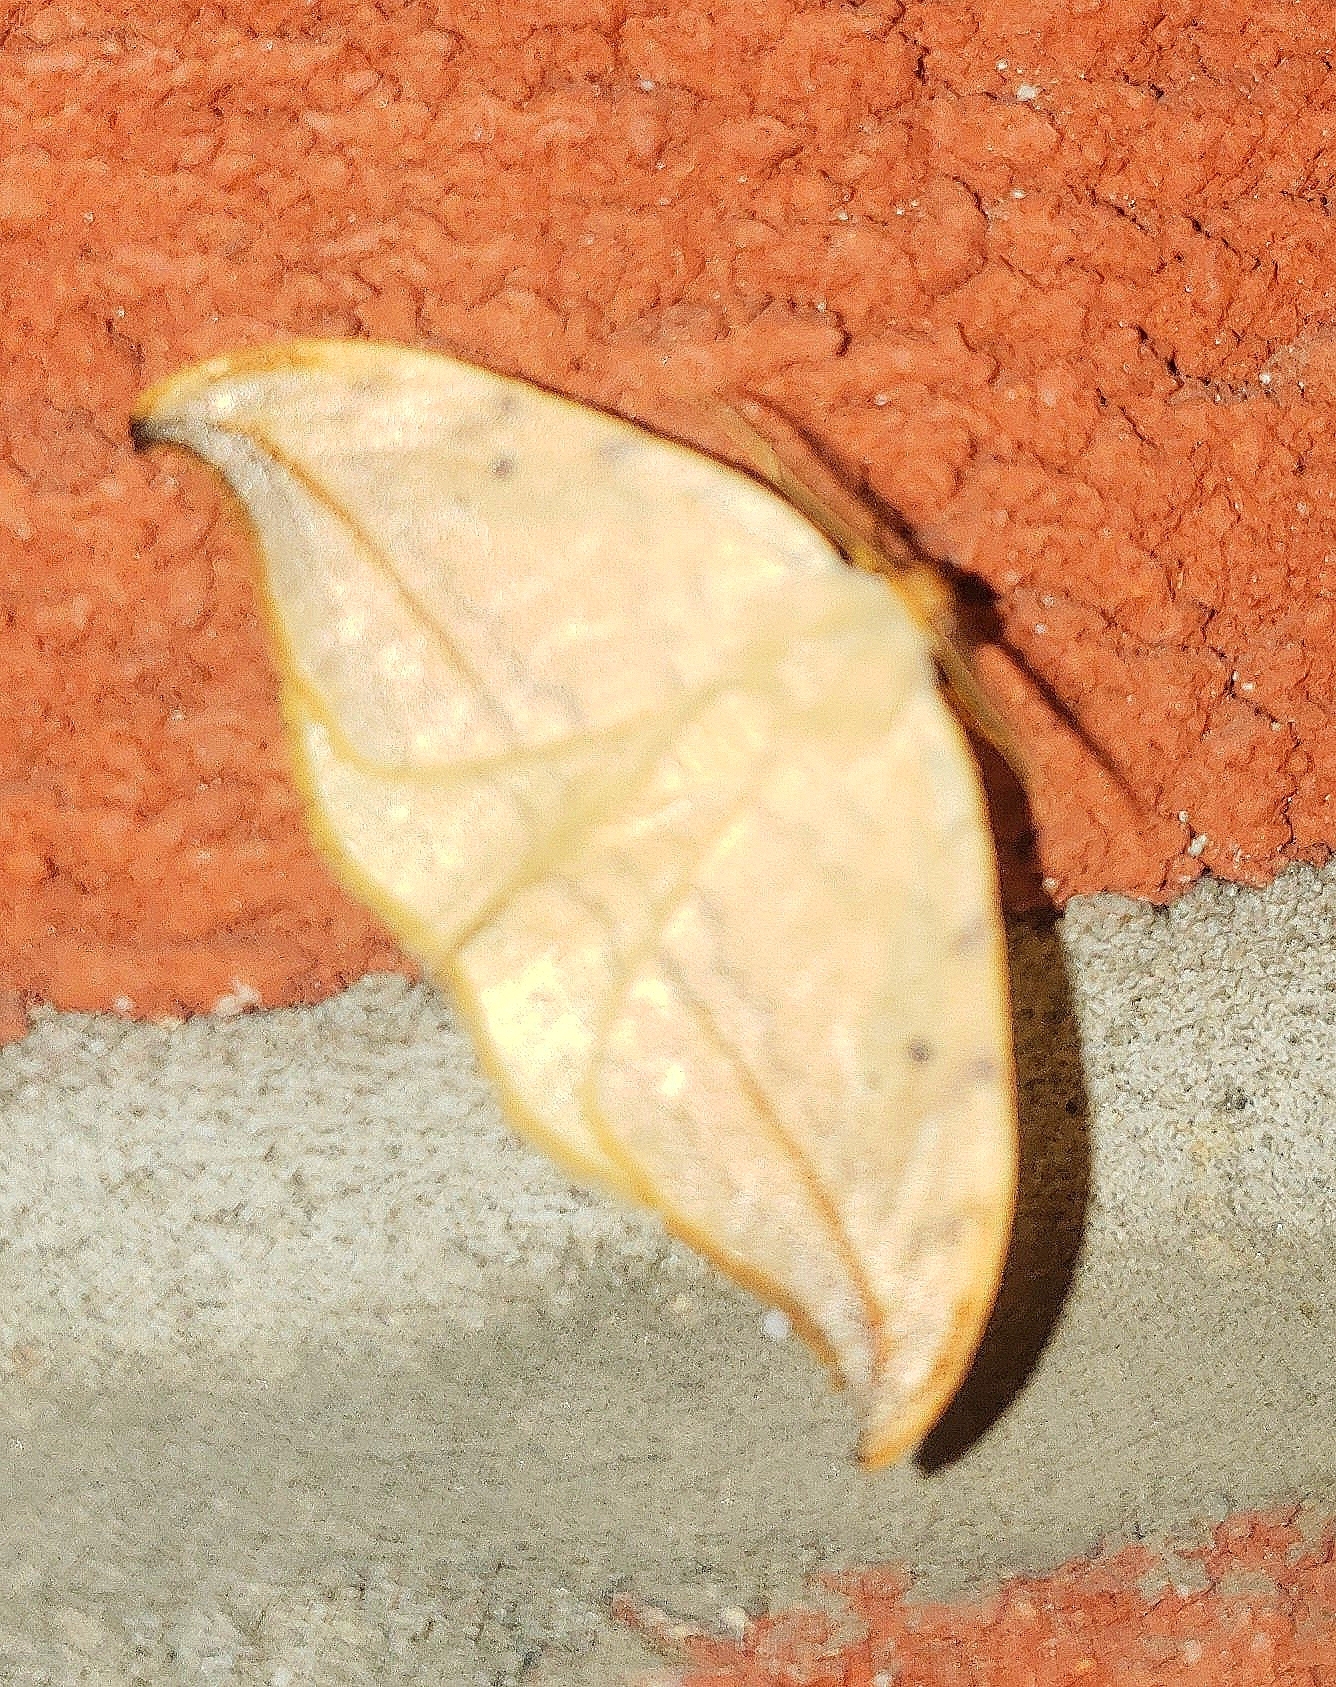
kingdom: Animalia
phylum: Arthropoda
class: Insecta
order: Lepidoptera
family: Drepanidae
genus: Drepana
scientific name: Drepana arcuata
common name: Arched hooktip moth
